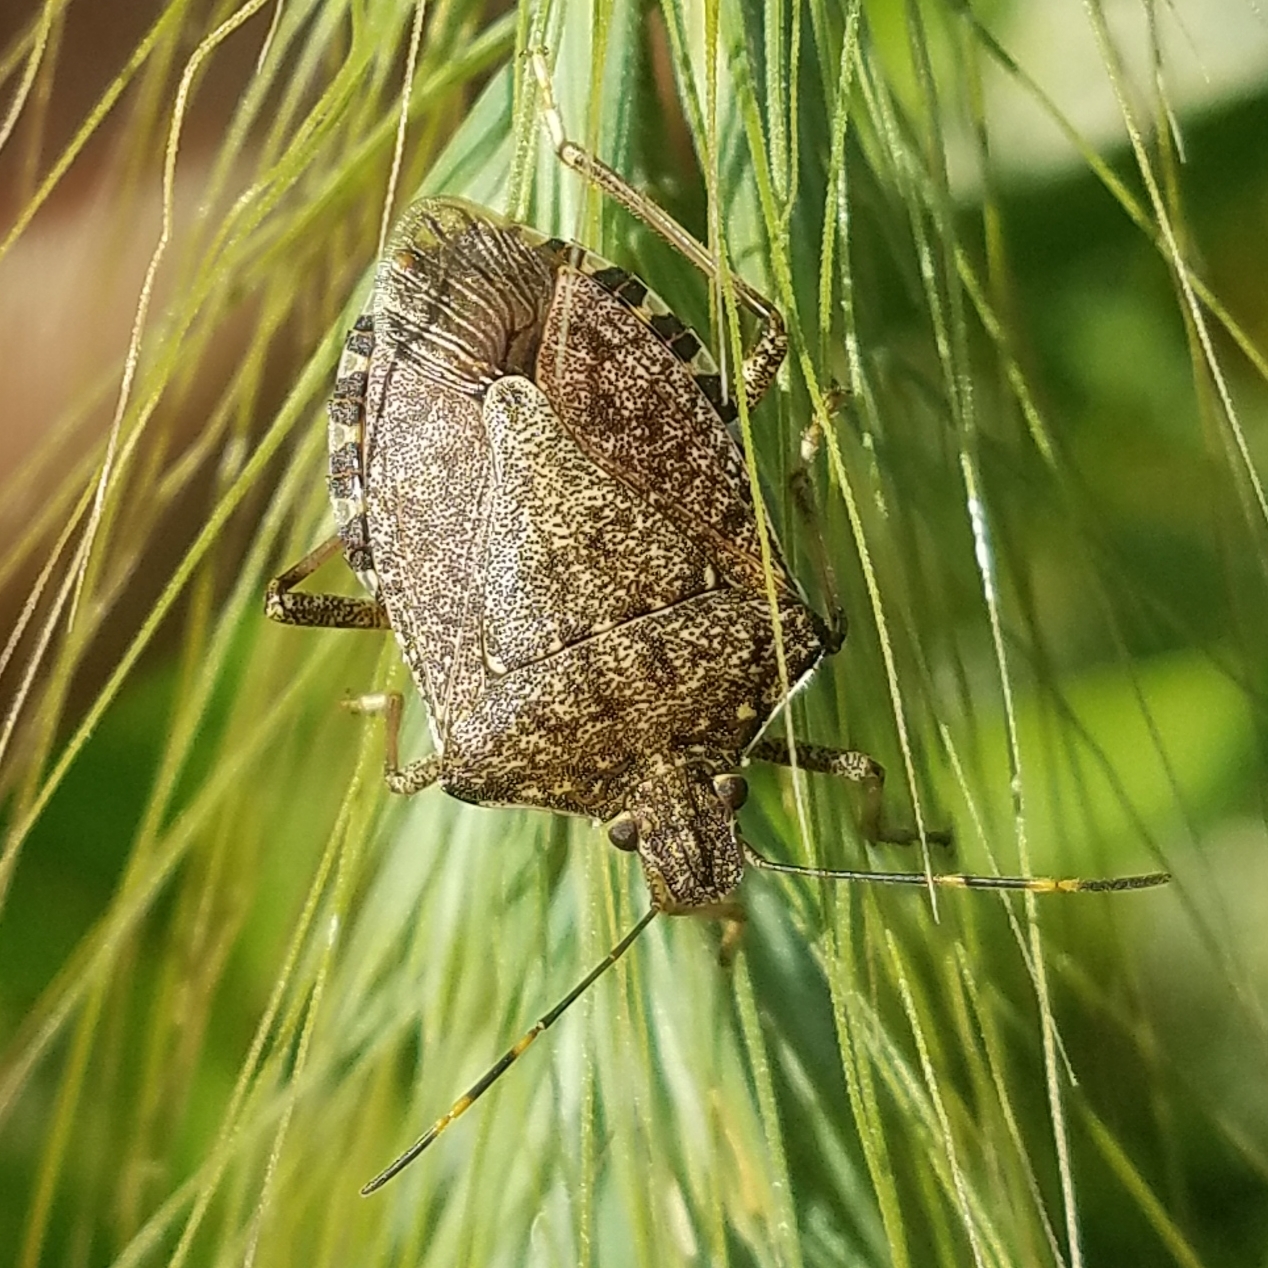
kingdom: Animalia
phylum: Arthropoda
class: Insecta
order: Hemiptera
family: Pentatomidae
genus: Halyomorpha
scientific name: Halyomorpha halys
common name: Brown marmorated stink bug
